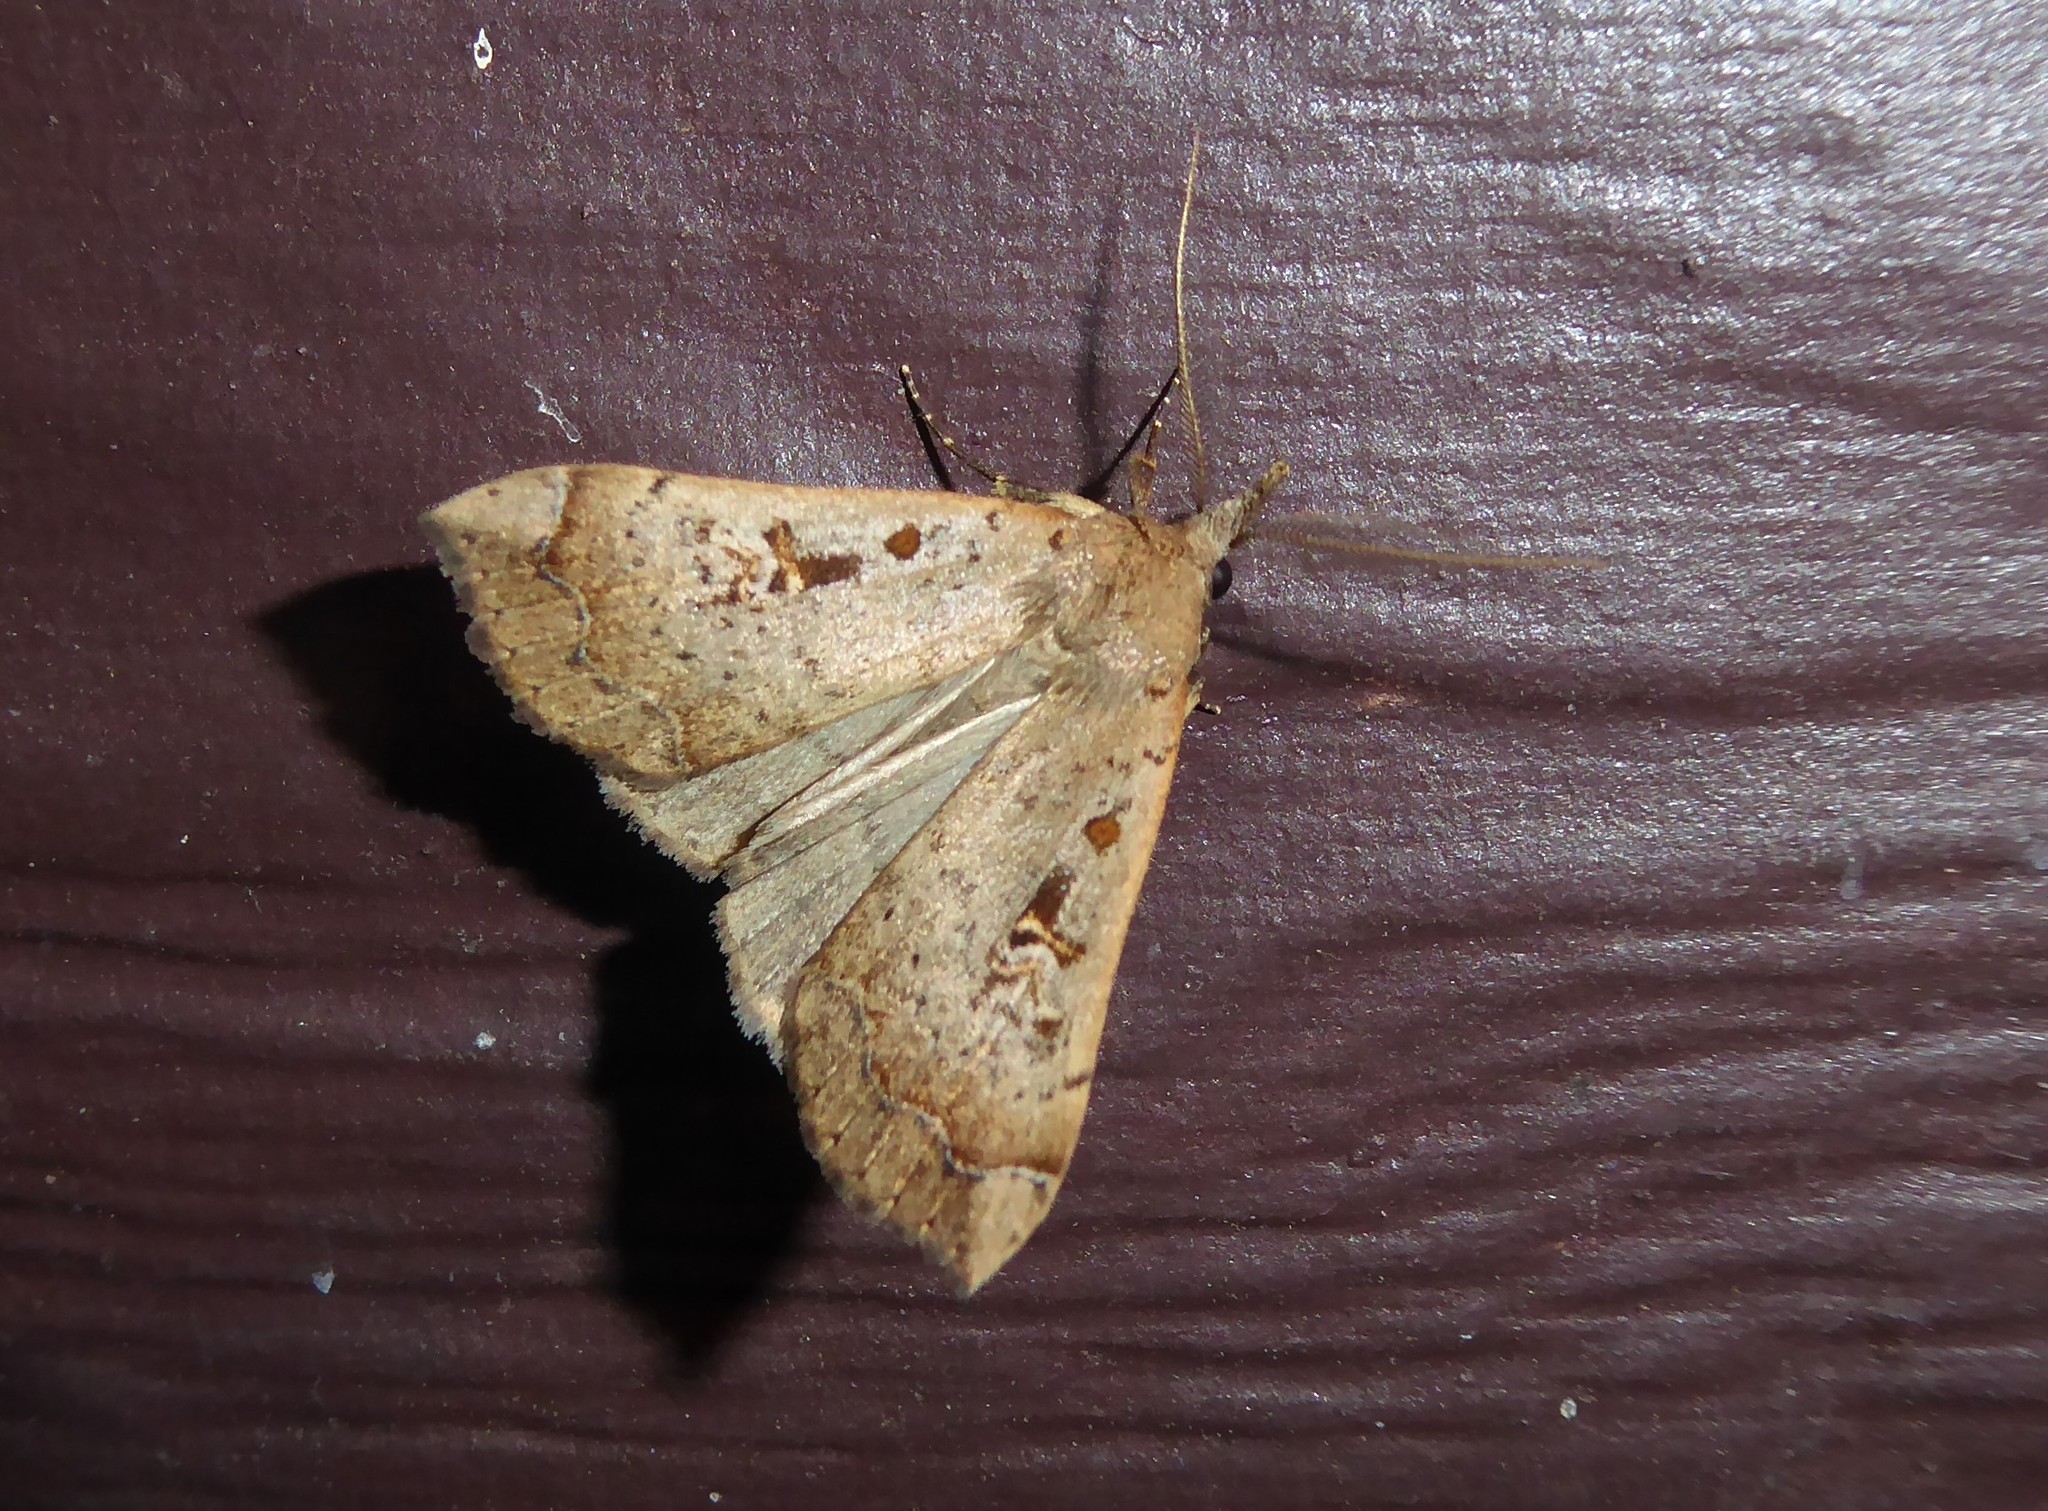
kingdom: Animalia
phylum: Arthropoda
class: Insecta
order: Lepidoptera
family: Erebidae
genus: Rhapsa
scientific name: Rhapsa scotosialis
